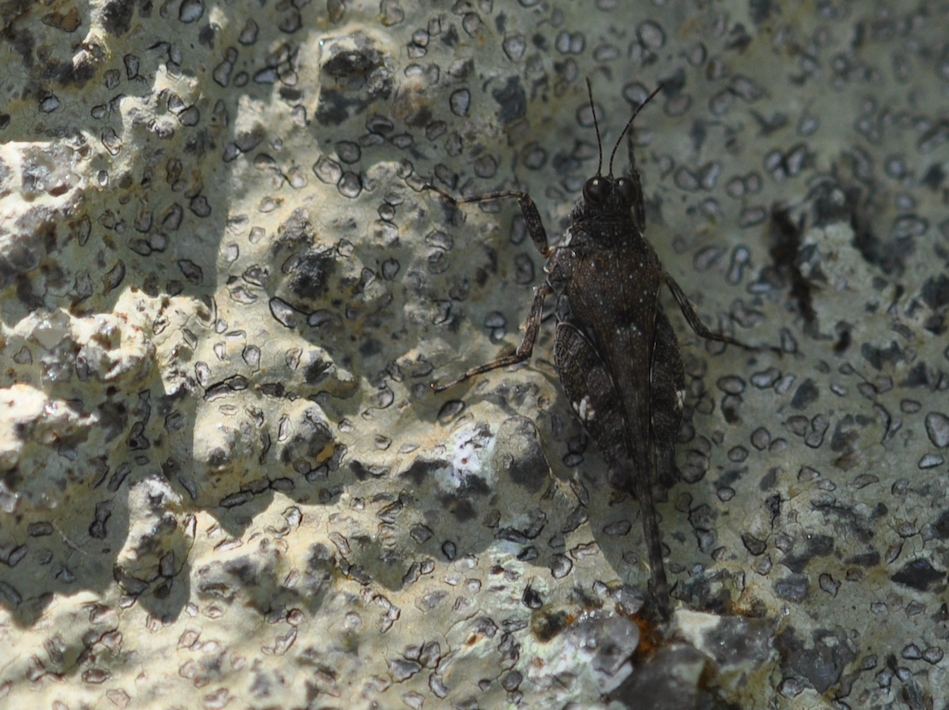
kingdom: Animalia
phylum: Arthropoda
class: Insecta
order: Orthoptera
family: Tetrigidae
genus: Pseudosystolederus
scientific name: Pseudosystolederus sikorai
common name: Madagascar boulder pygmy grasshopper
